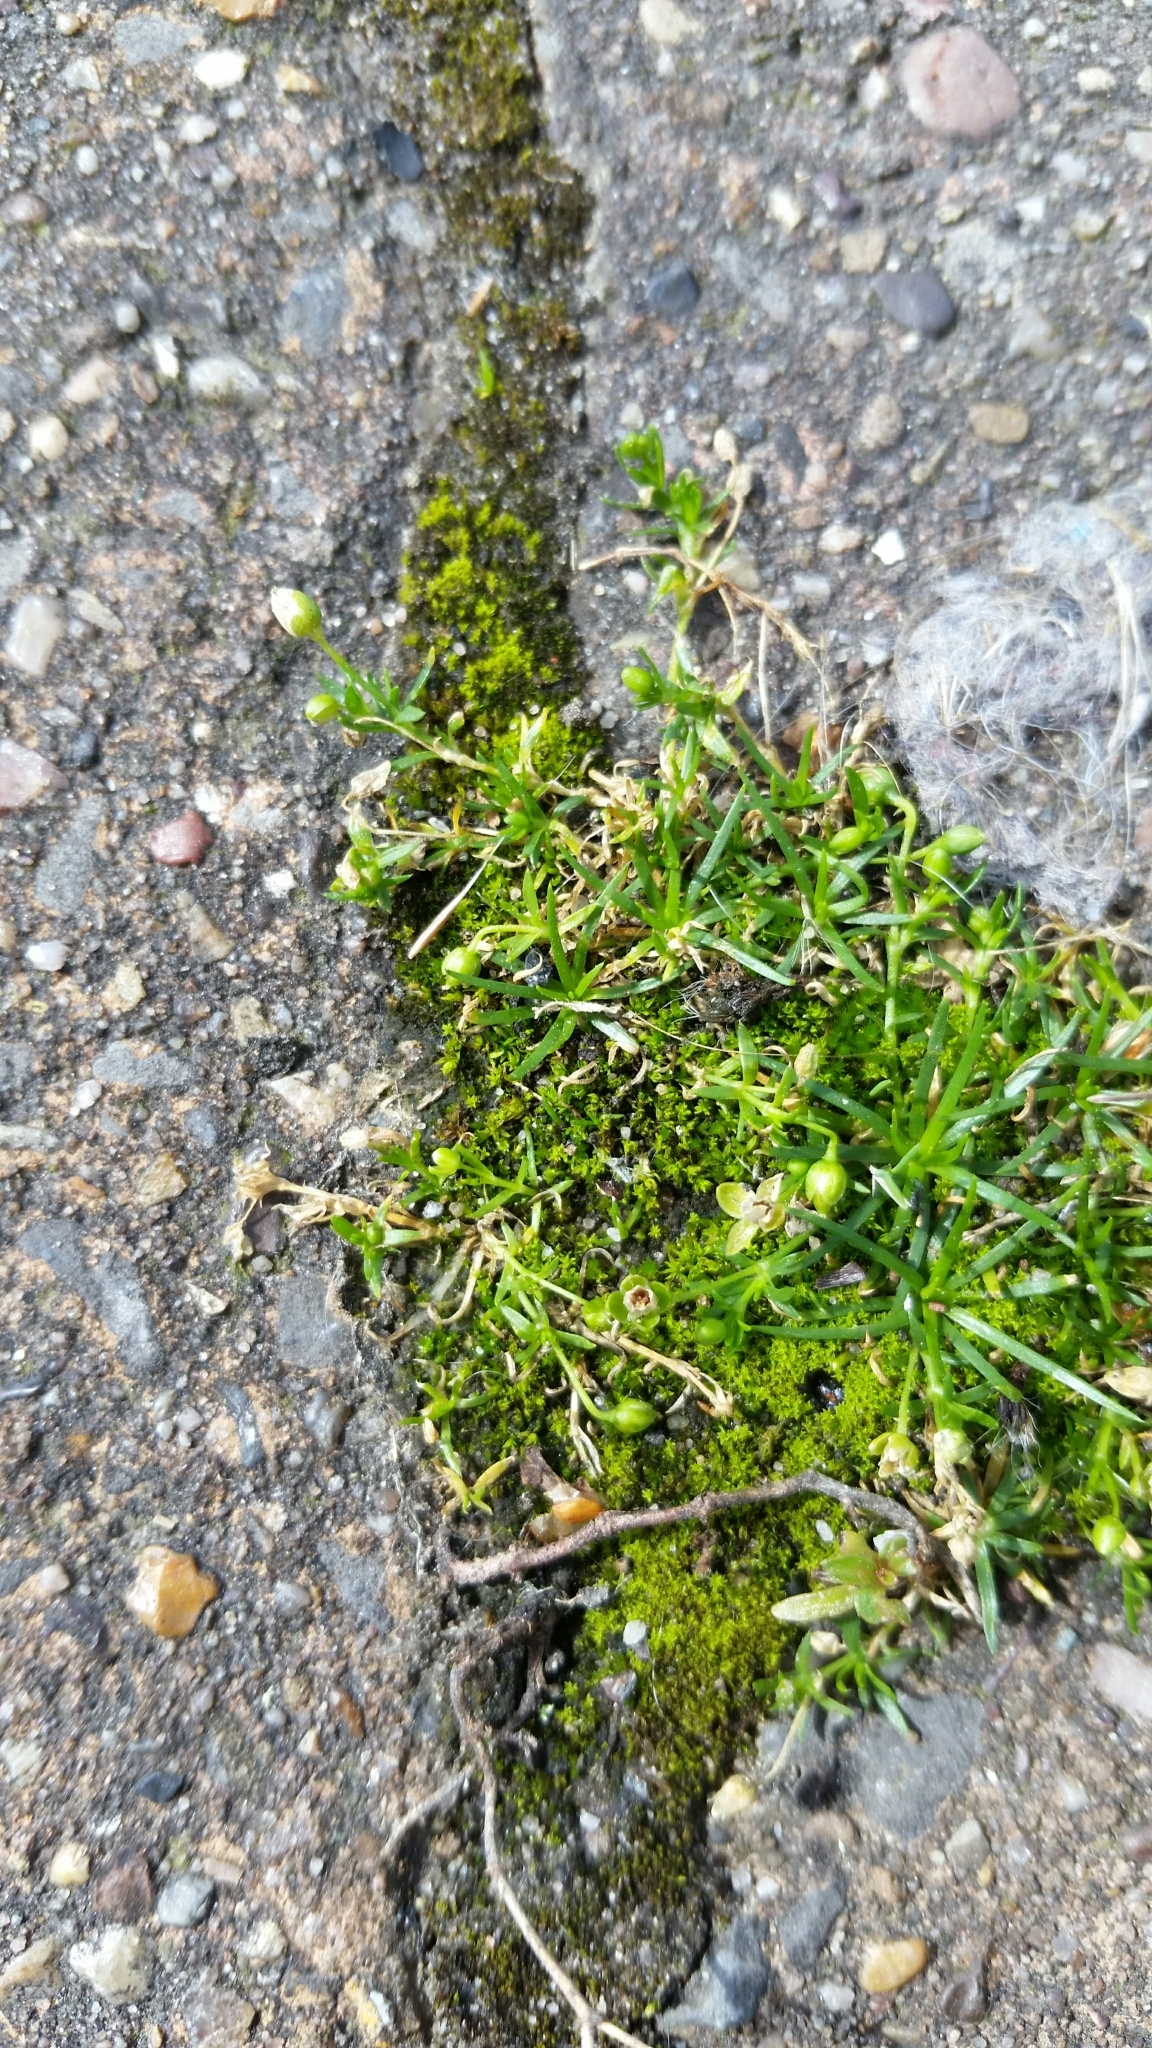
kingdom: Plantae
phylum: Tracheophyta
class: Magnoliopsida
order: Caryophyllales
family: Caryophyllaceae
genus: Sagina
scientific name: Sagina procumbens
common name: Procumbent pearlwort
